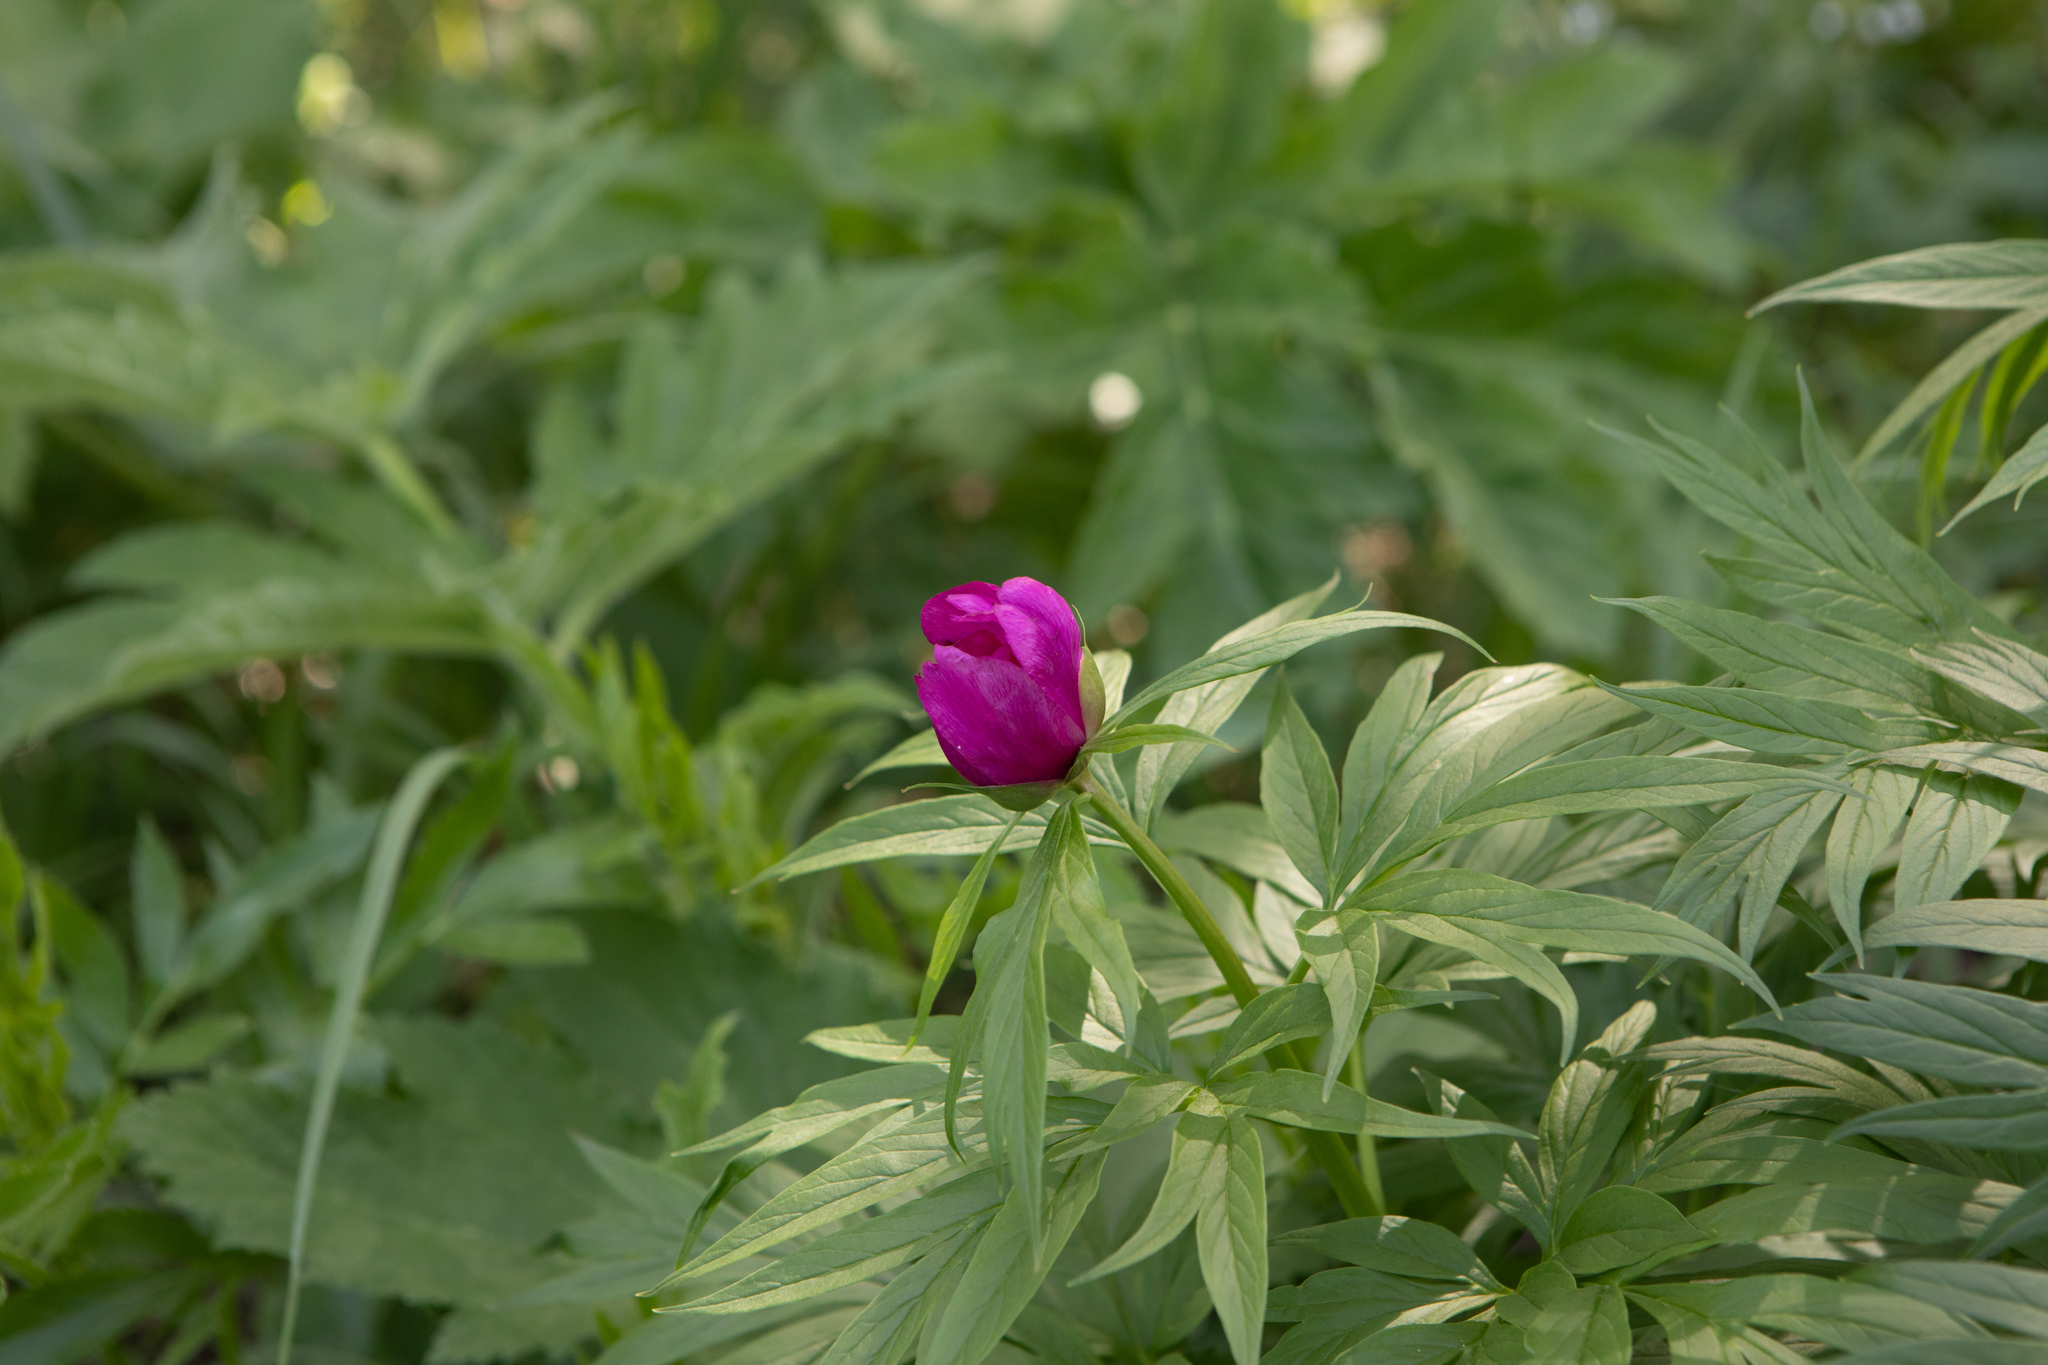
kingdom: Plantae
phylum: Tracheophyta
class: Magnoliopsida
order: Saxifragales
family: Paeoniaceae
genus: Paeonia
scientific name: Paeonia anomala
